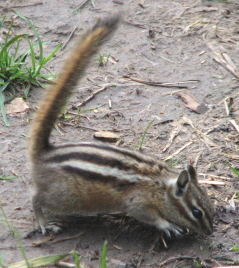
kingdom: Animalia
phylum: Chordata
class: Mammalia
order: Rodentia
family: Sciuridae
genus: Tamias
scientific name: Tamias minimus
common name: Least chipmunk
